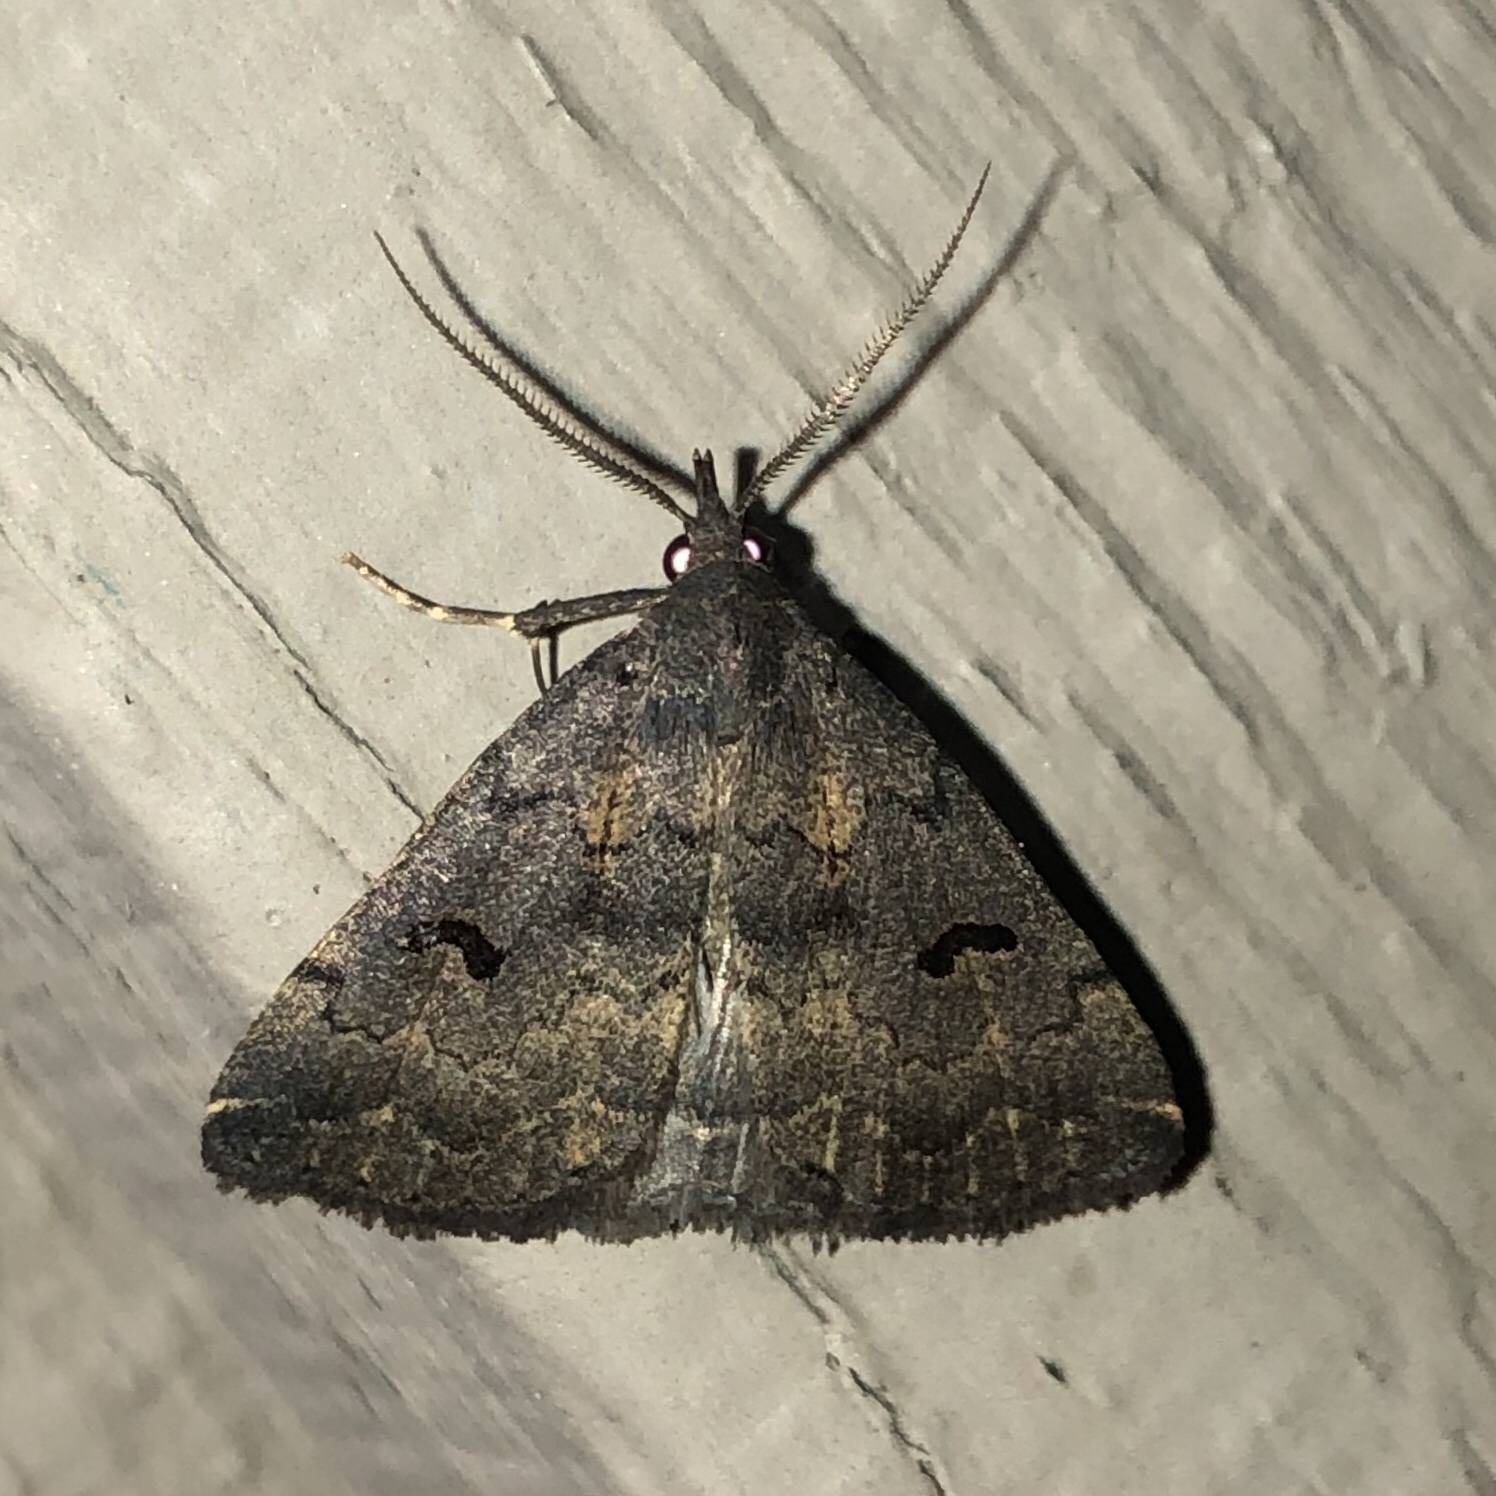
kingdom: Animalia
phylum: Arthropoda
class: Insecta
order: Lepidoptera
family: Erebidae
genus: Phalaenostola
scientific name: Phalaenostola hanhami
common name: Hanham's owlet
